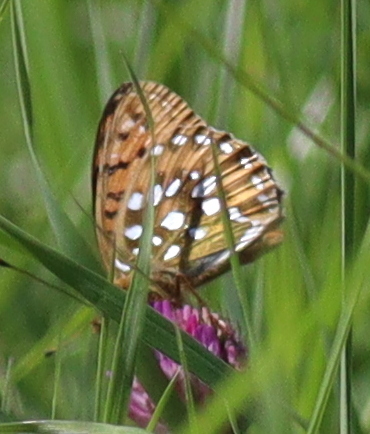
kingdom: Animalia
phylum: Arthropoda
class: Insecta
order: Lepidoptera
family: Nymphalidae
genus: Speyeria
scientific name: Speyeria aglaja
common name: Dark green fritillary
